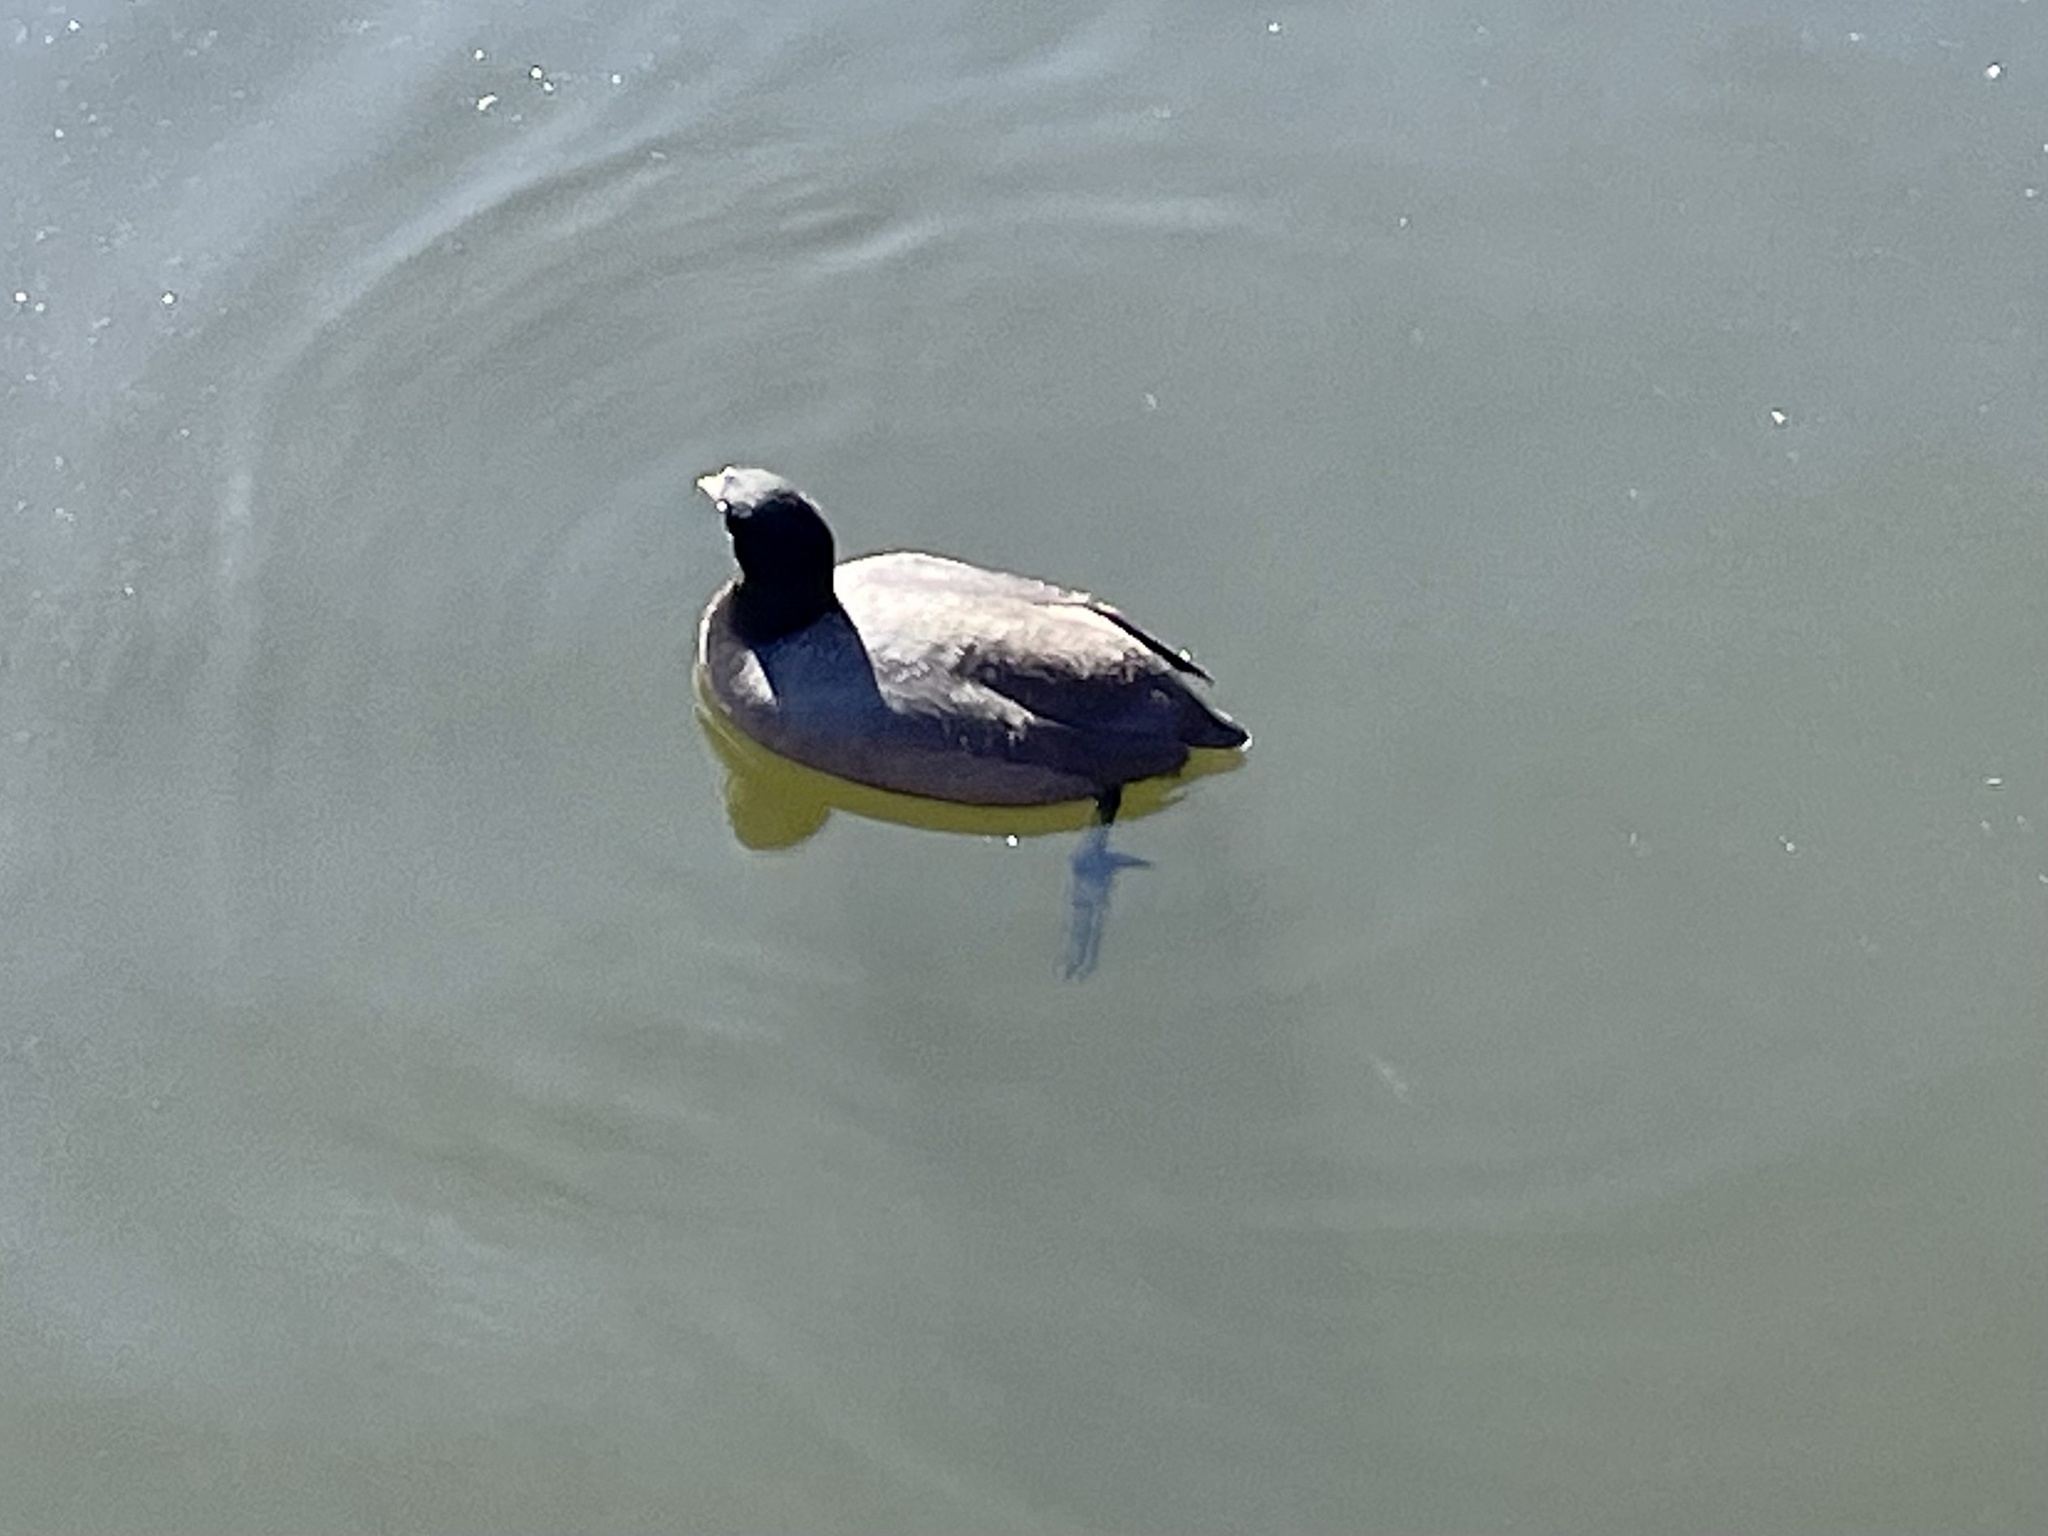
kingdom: Animalia
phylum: Chordata
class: Aves
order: Gruiformes
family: Rallidae
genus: Fulica
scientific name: Fulica americana
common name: American coot
